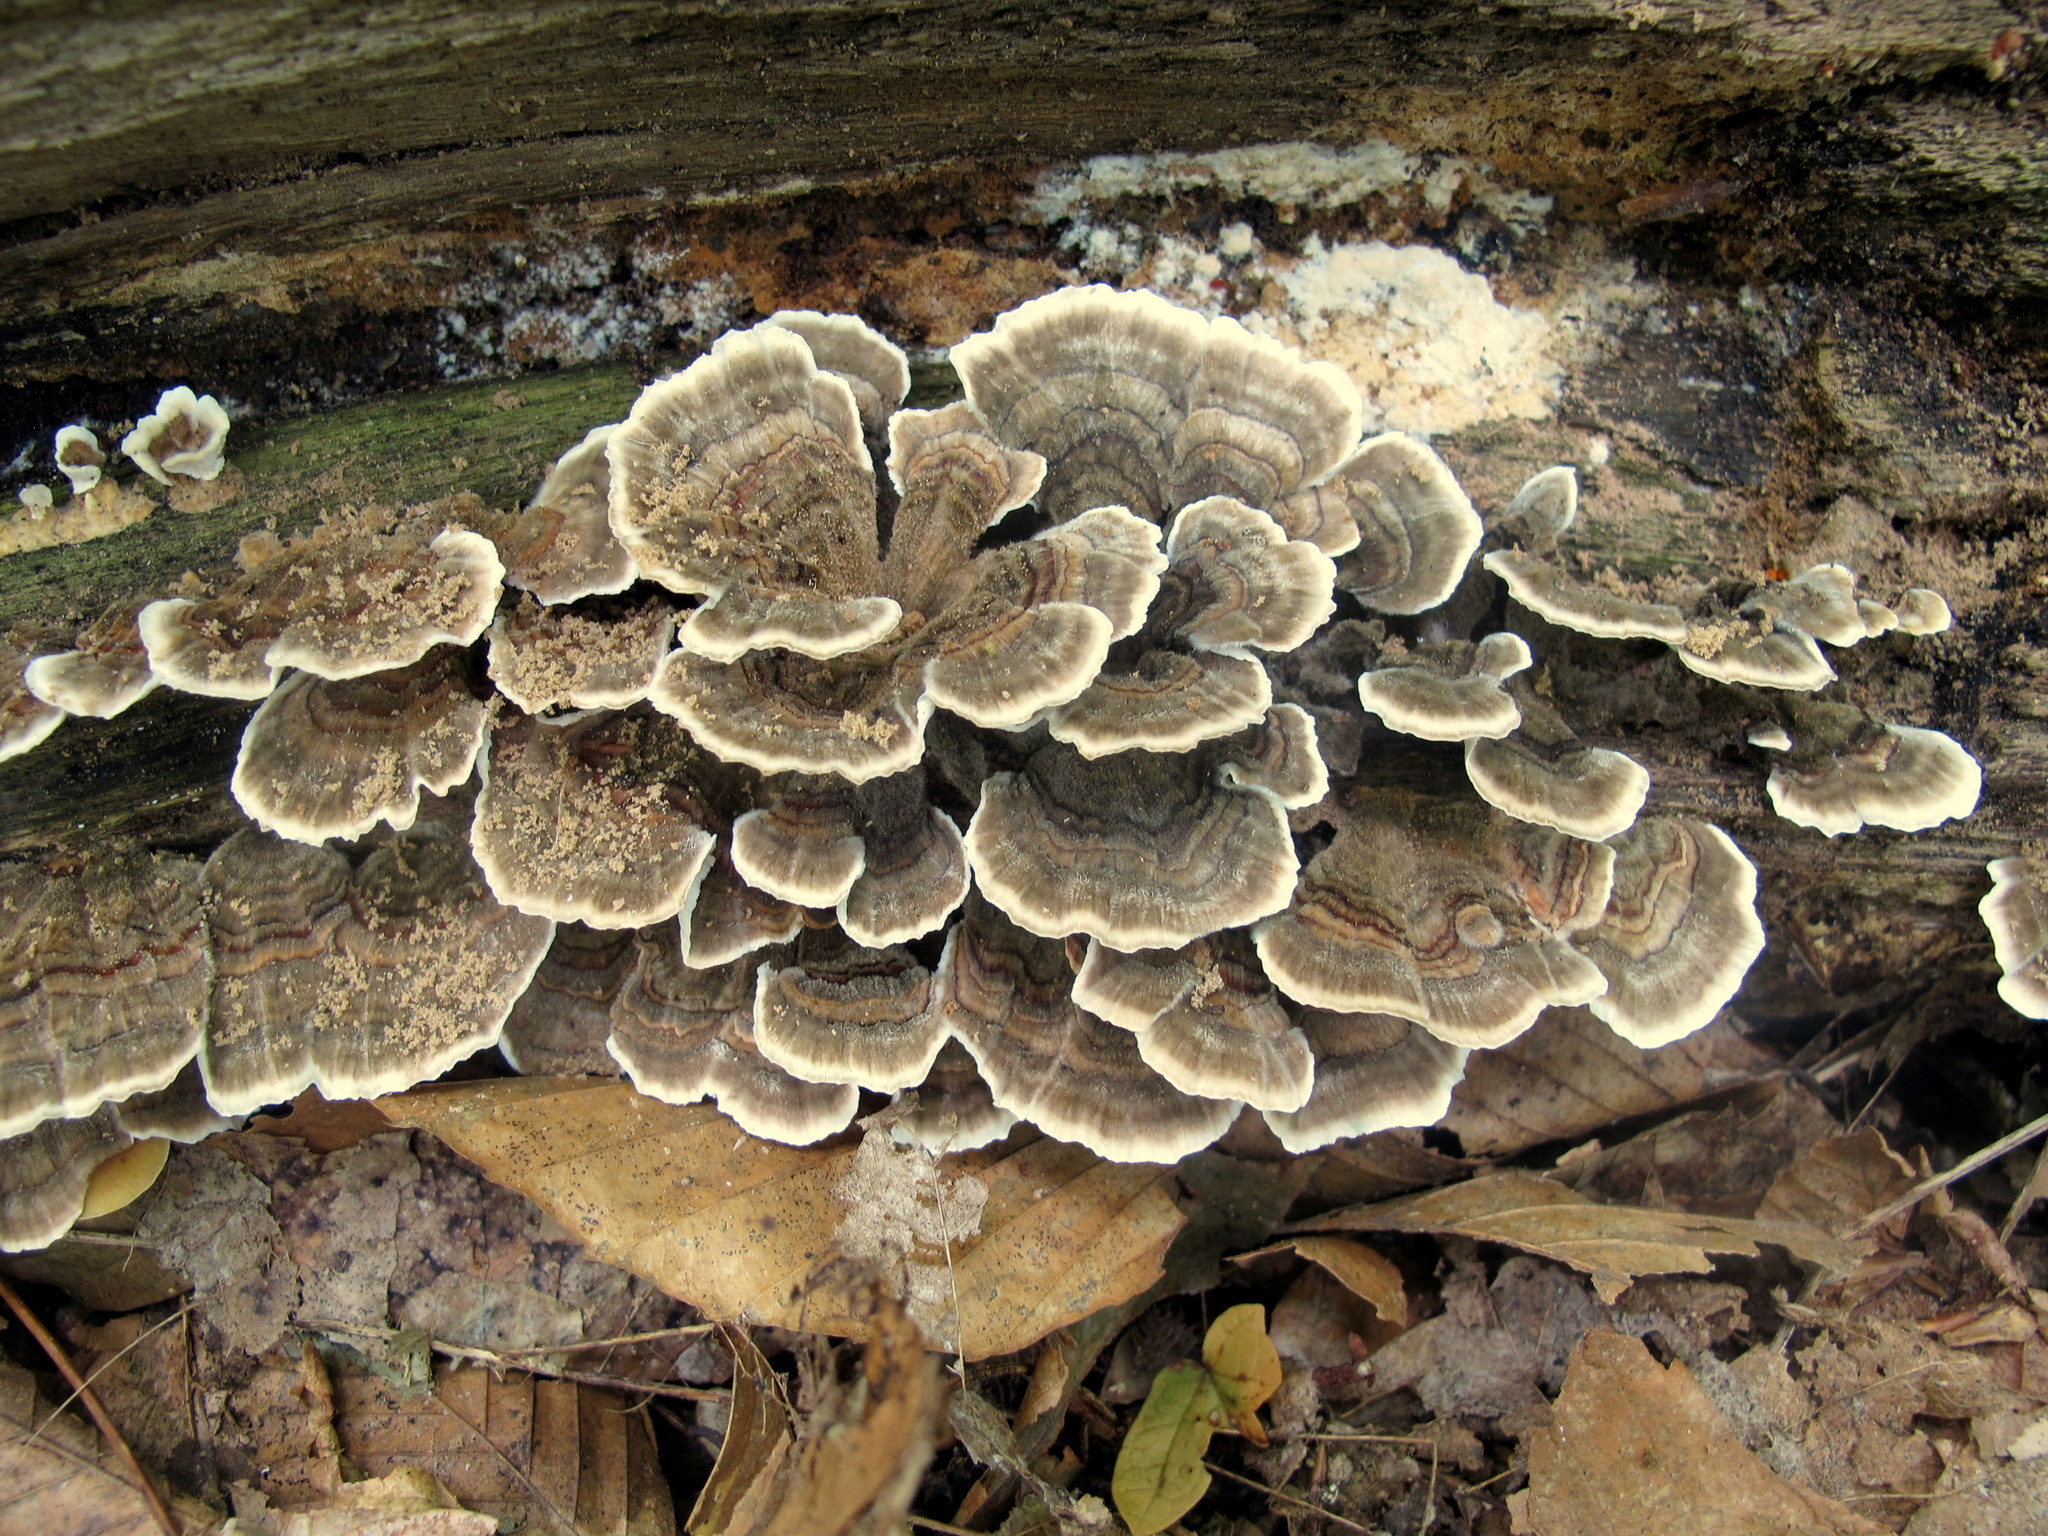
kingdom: Fungi
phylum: Basidiomycota
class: Agaricomycetes
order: Polyporales
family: Polyporaceae
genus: Trametes
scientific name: Trametes versicolor
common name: Turkeytail
